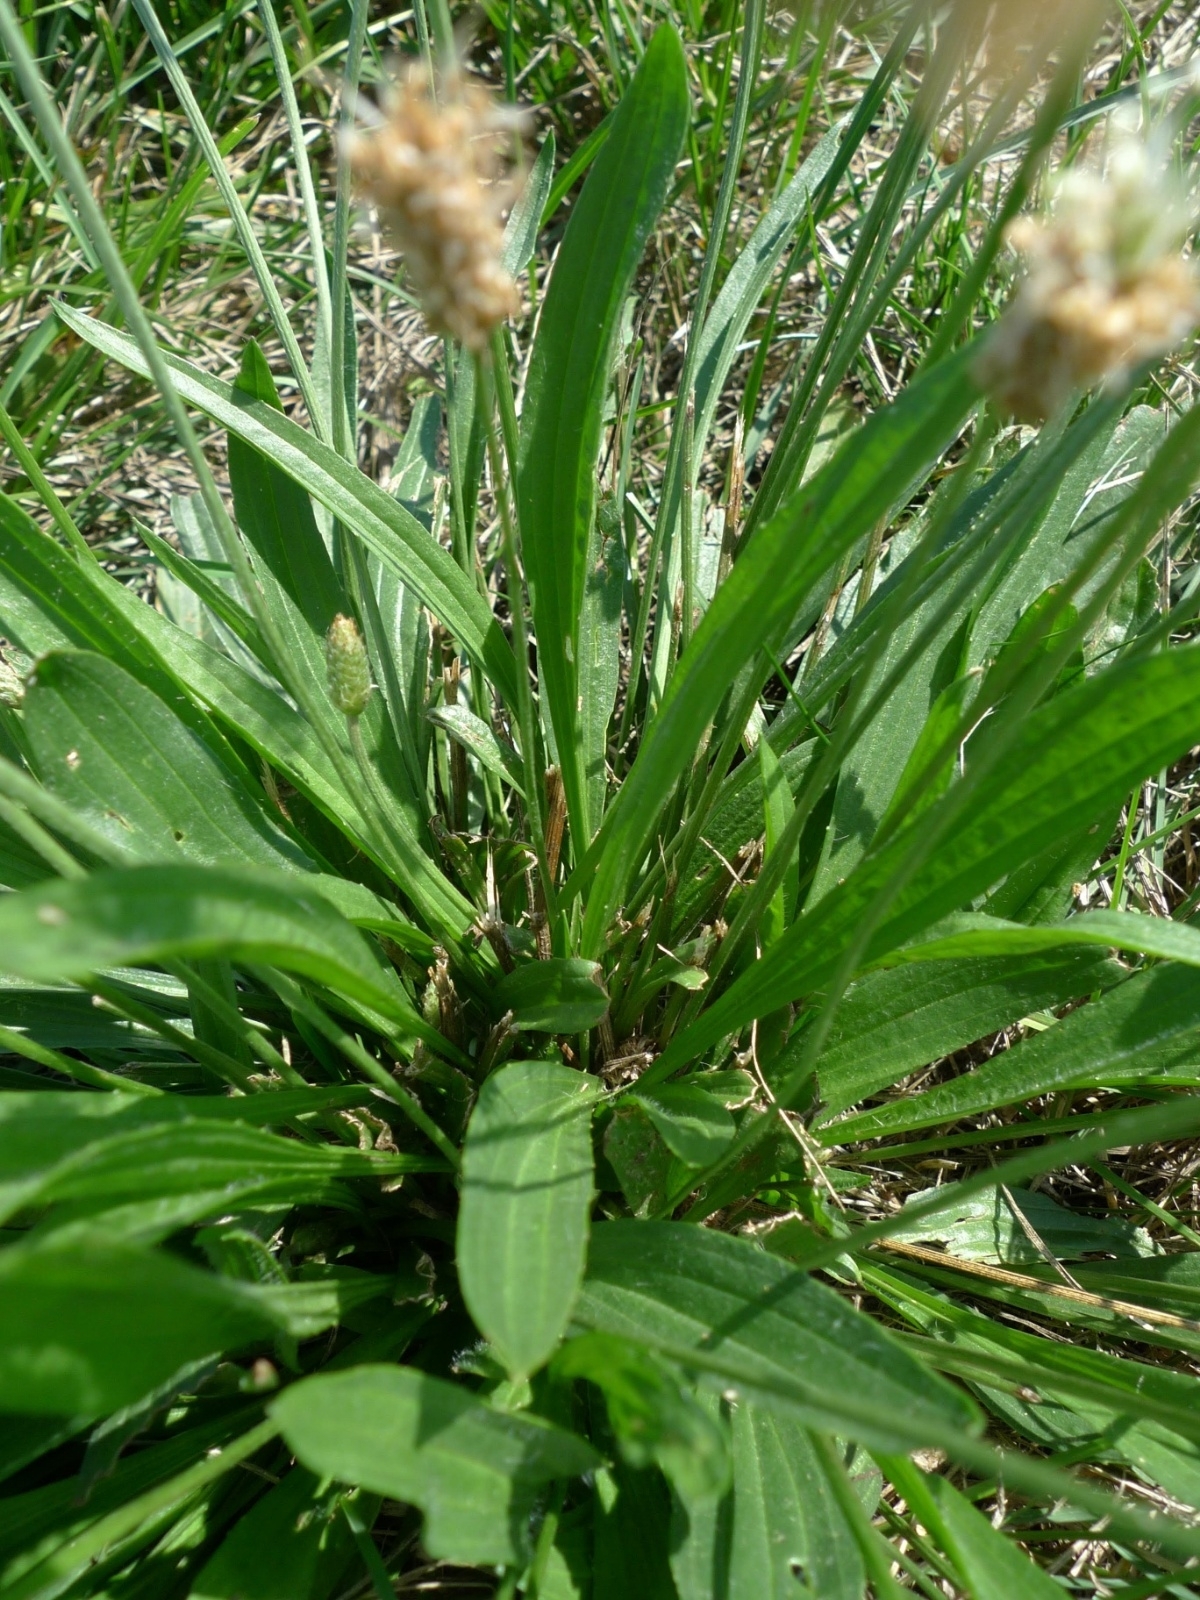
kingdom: Plantae
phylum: Tracheophyta
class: Magnoliopsida
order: Lamiales
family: Plantaginaceae
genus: Plantago
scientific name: Plantago lanceolata
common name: Ribwort plantain
